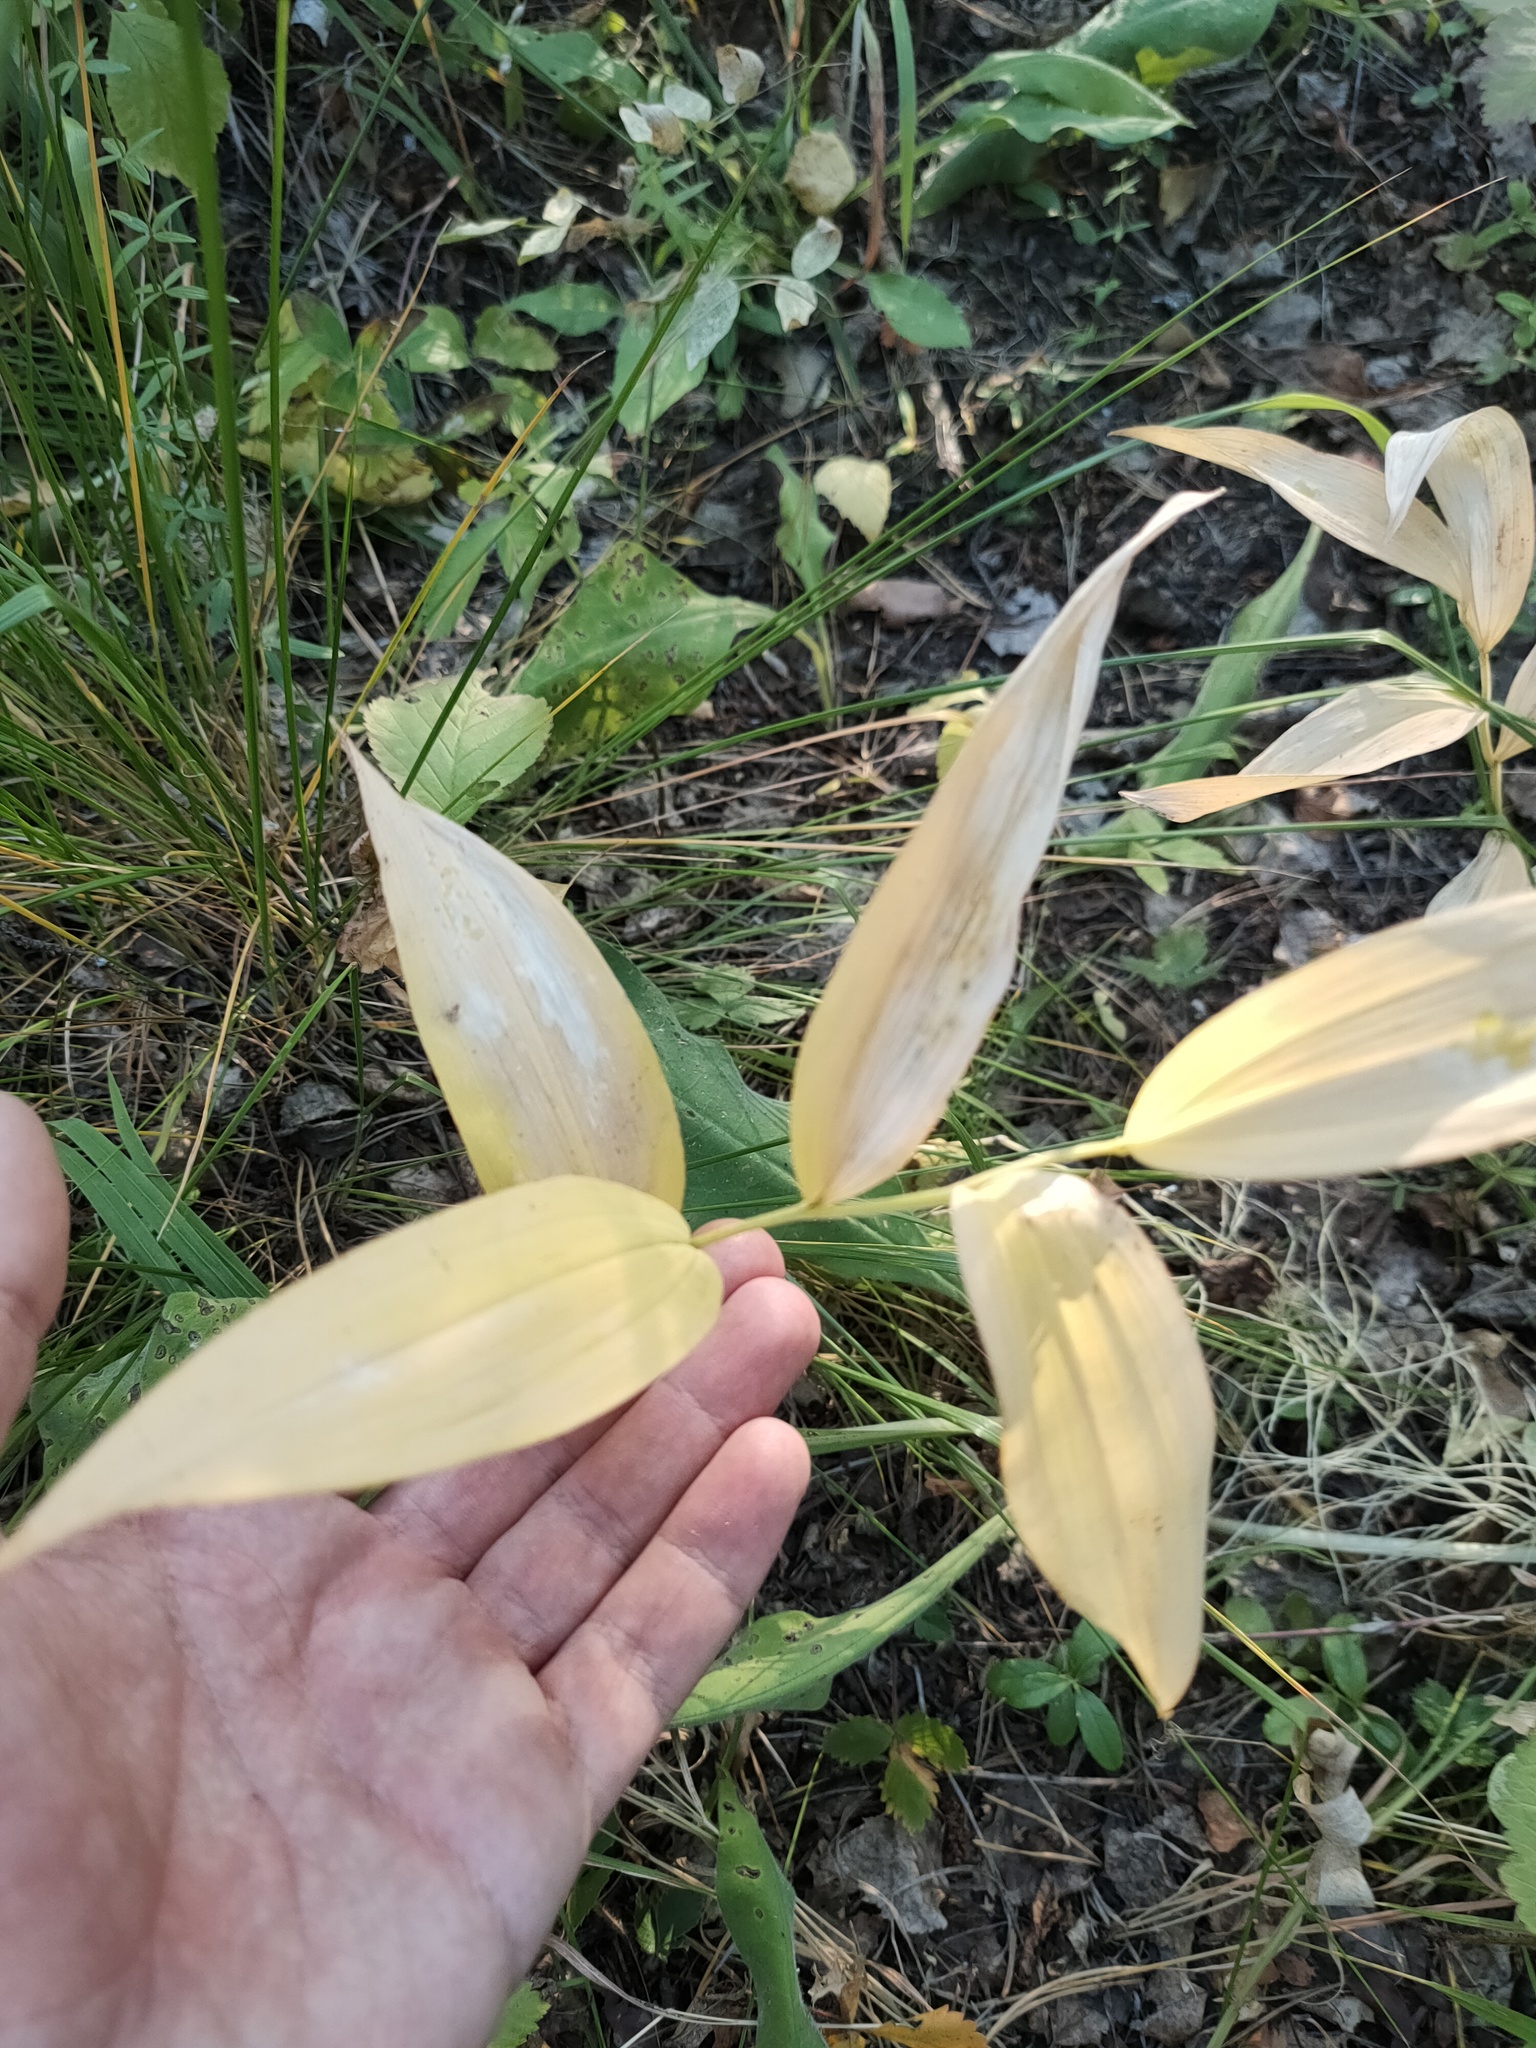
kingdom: Plantae
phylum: Tracheophyta
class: Liliopsida
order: Asparagales
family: Asparagaceae
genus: Polygonatum
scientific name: Polygonatum odoratum
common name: Angular solomon's-seal
